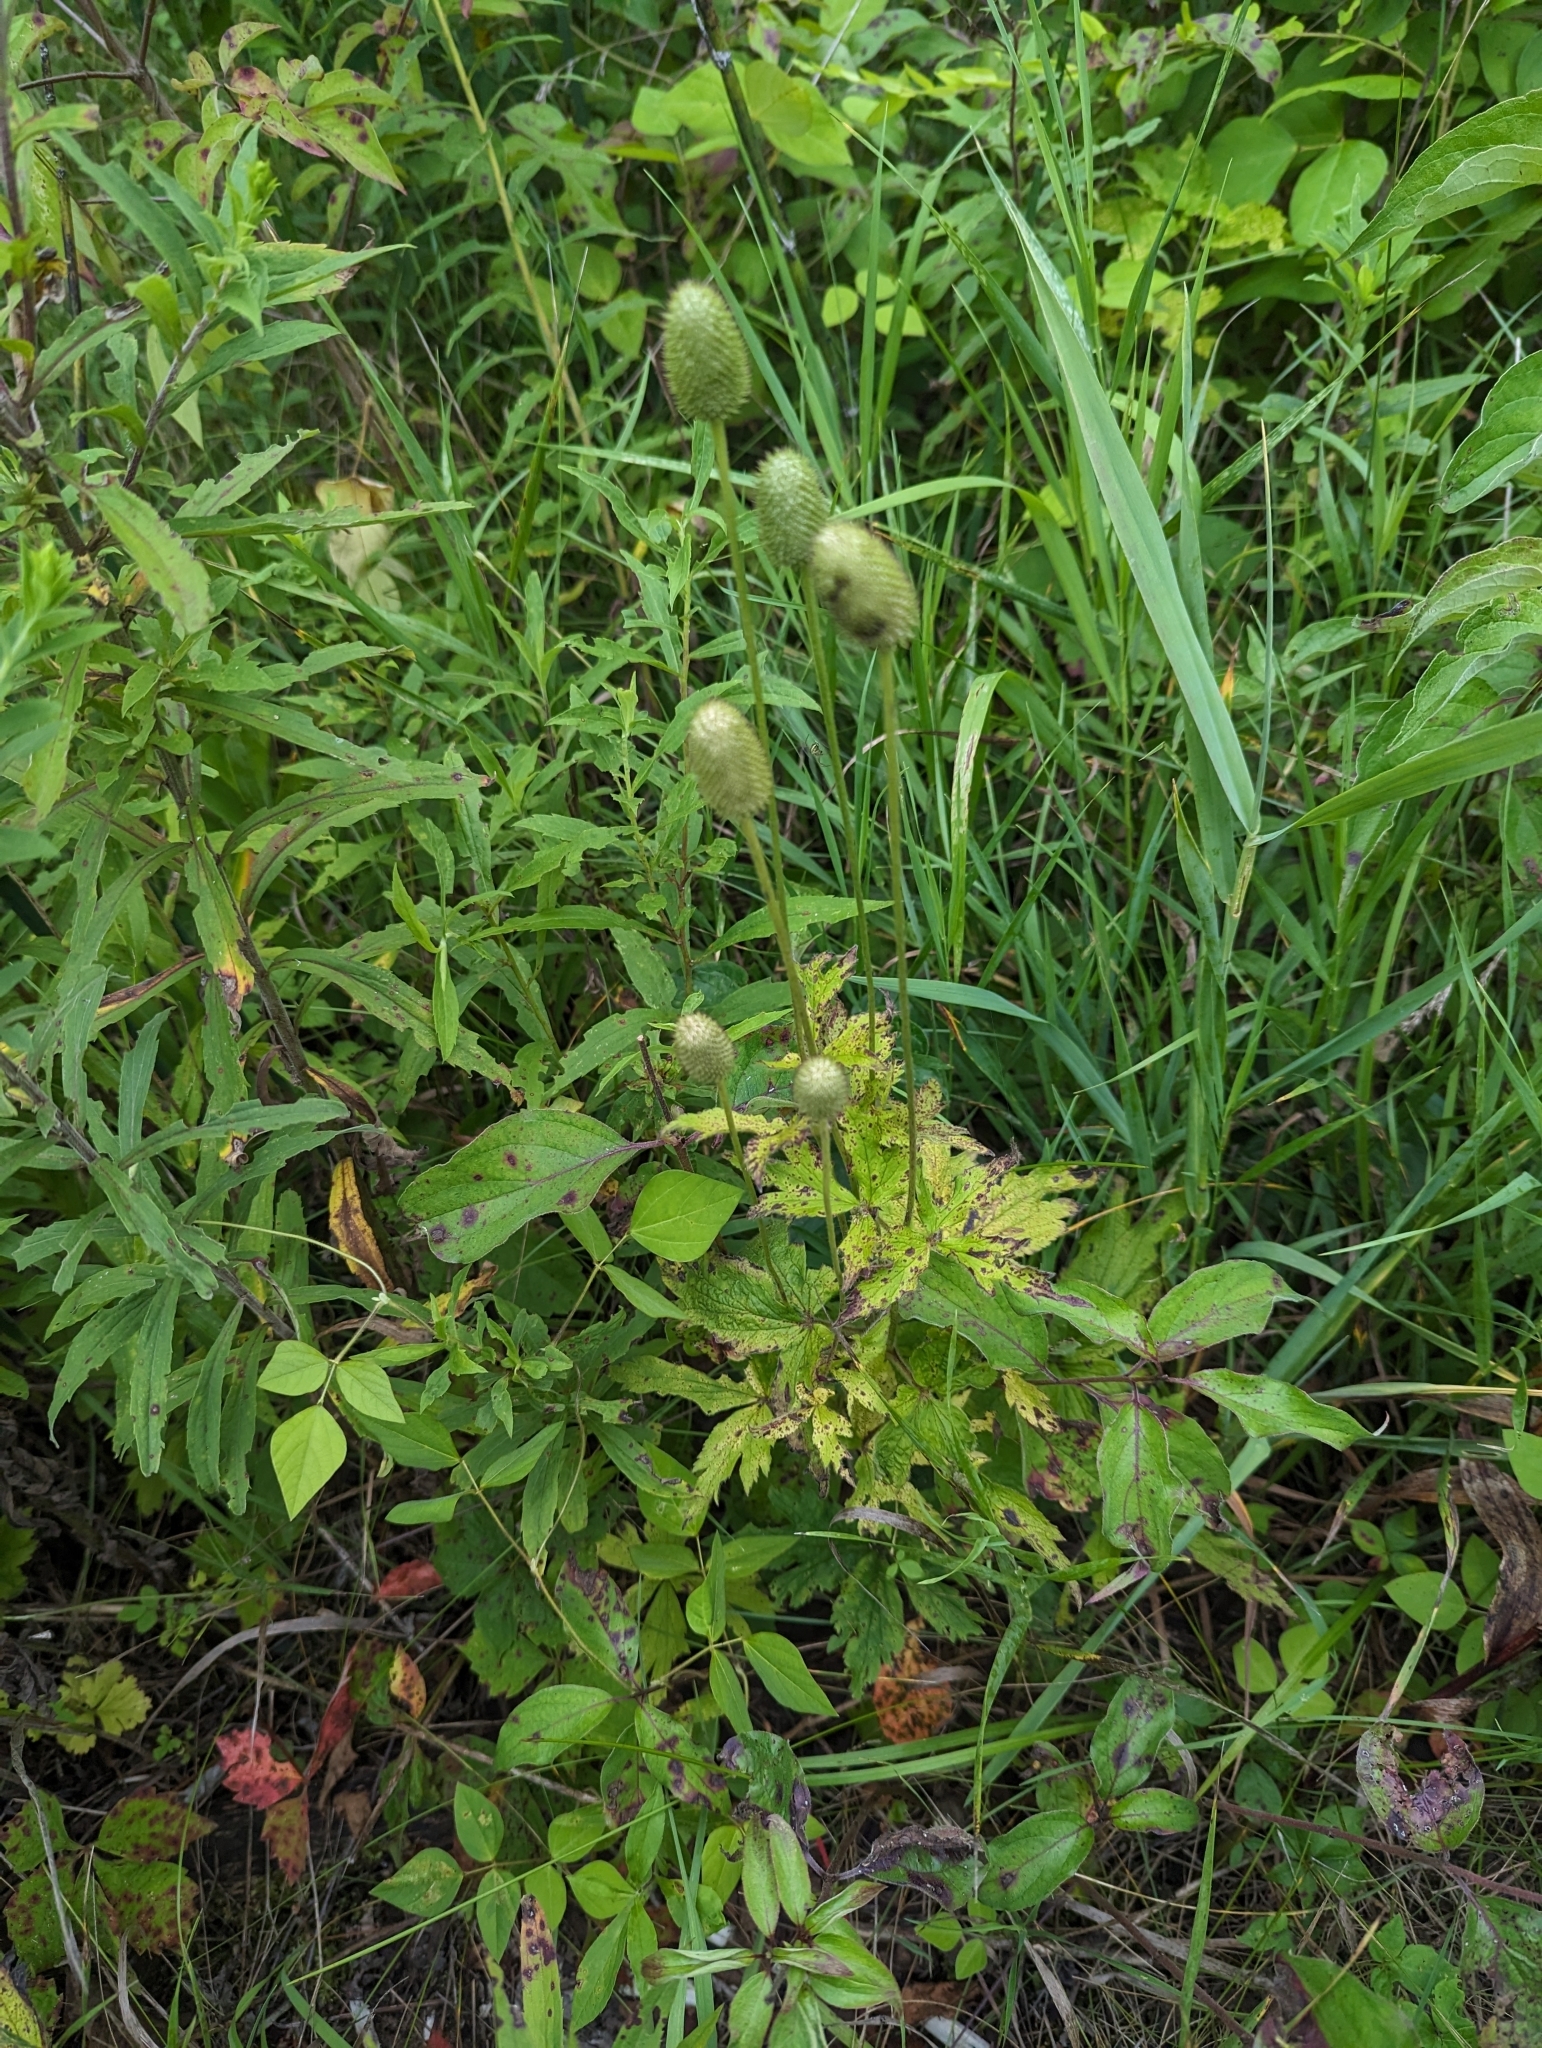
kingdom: Plantae
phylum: Tracheophyta
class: Magnoliopsida
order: Ranunculales
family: Ranunculaceae
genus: Anemone
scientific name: Anemone virginiana
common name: Tall anemone
